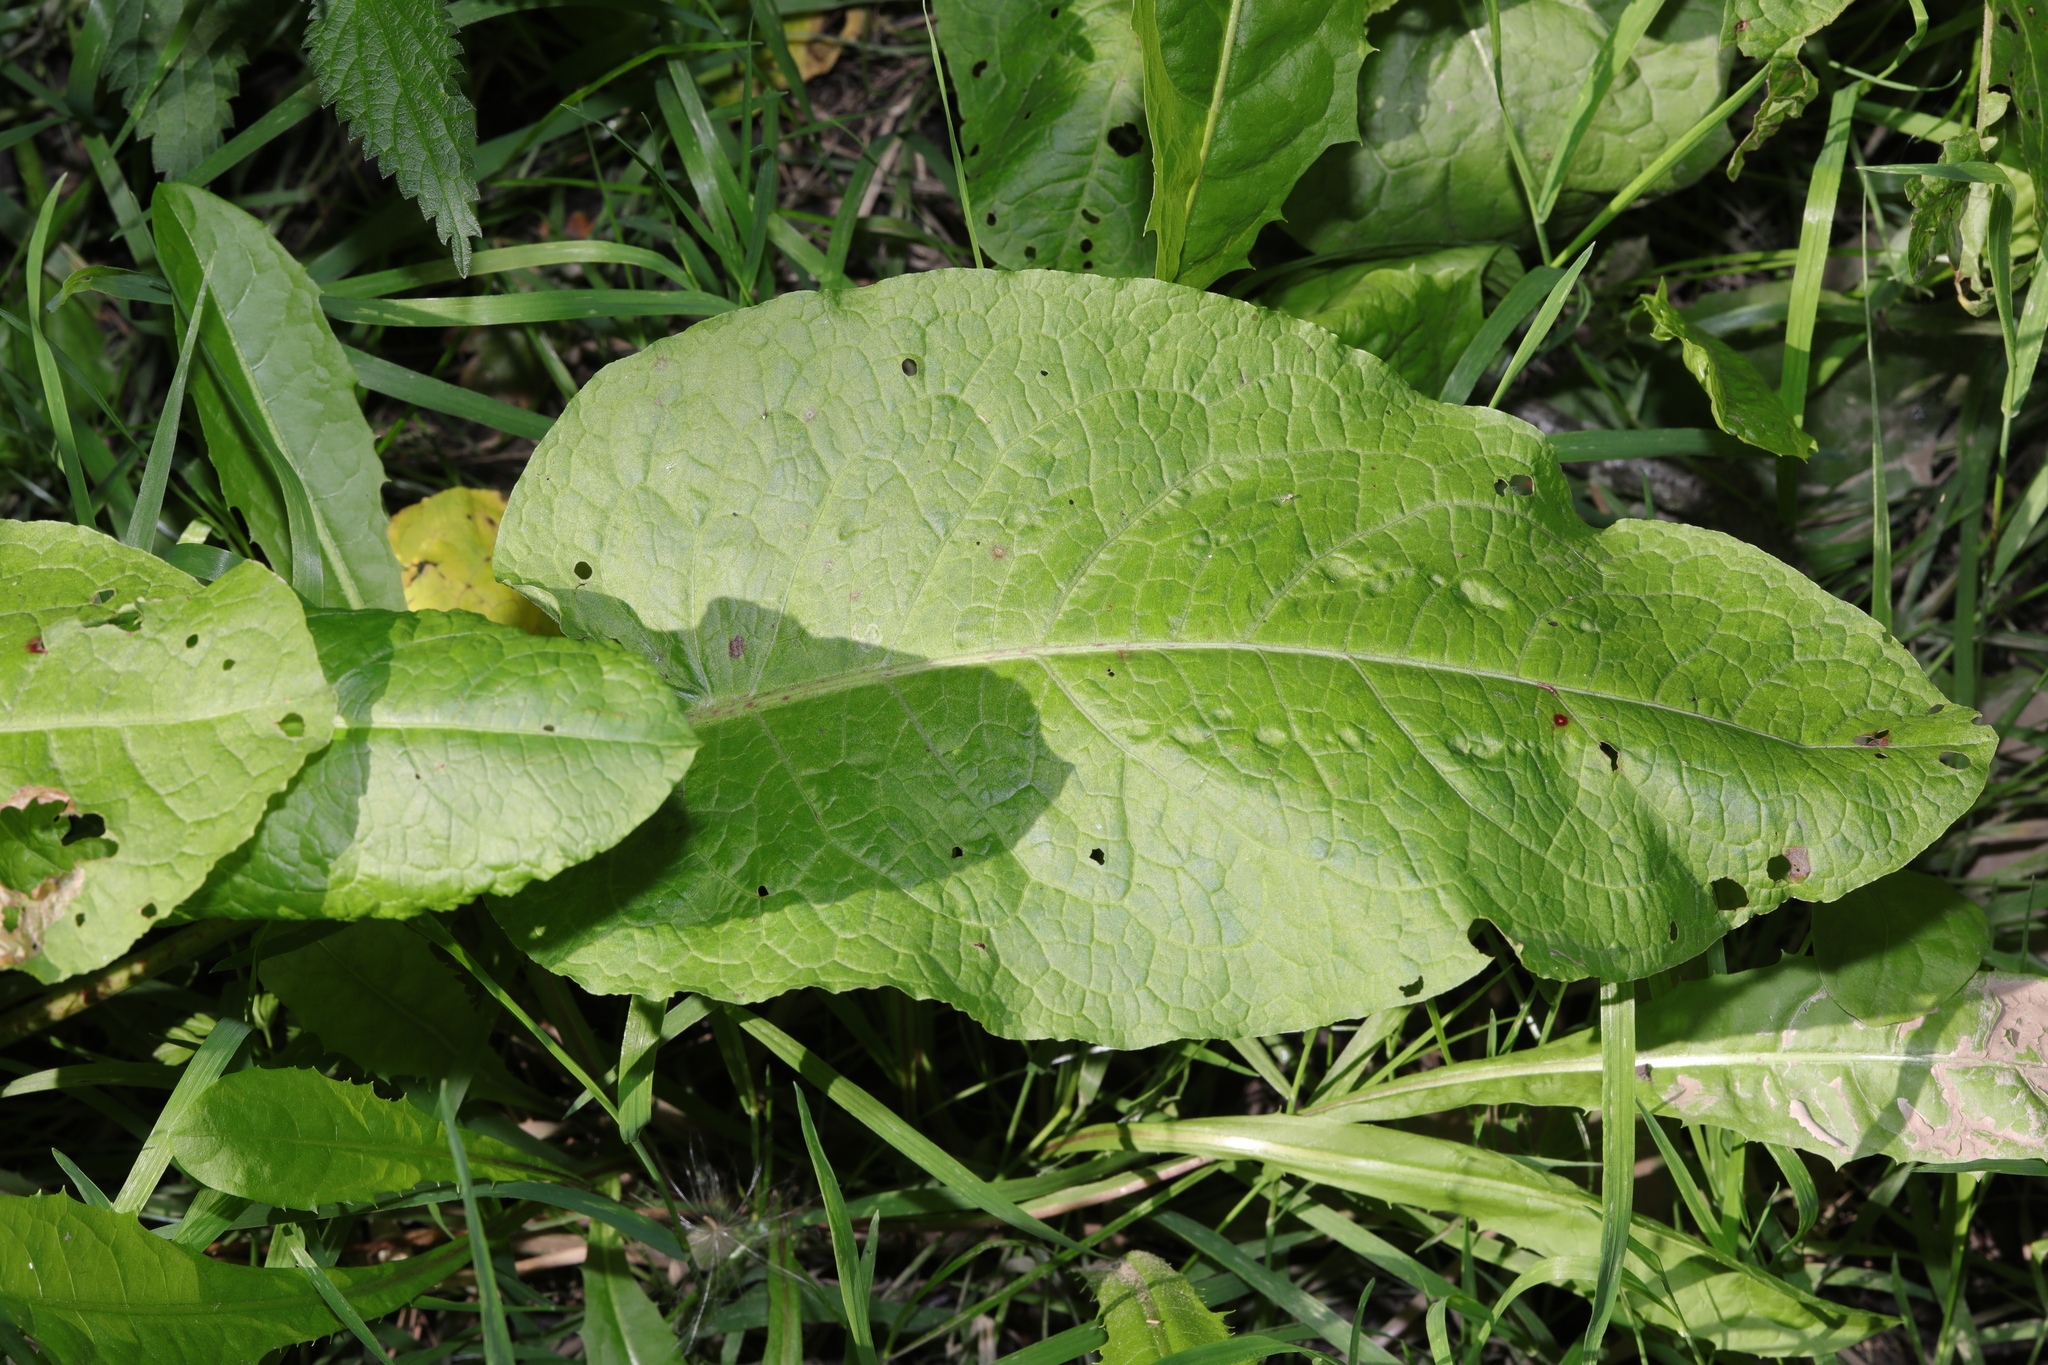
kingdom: Plantae
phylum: Tracheophyta
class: Magnoliopsida
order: Caryophyllales
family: Polygonaceae
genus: Rumex
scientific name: Rumex obtusifolius
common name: Bitter dock
